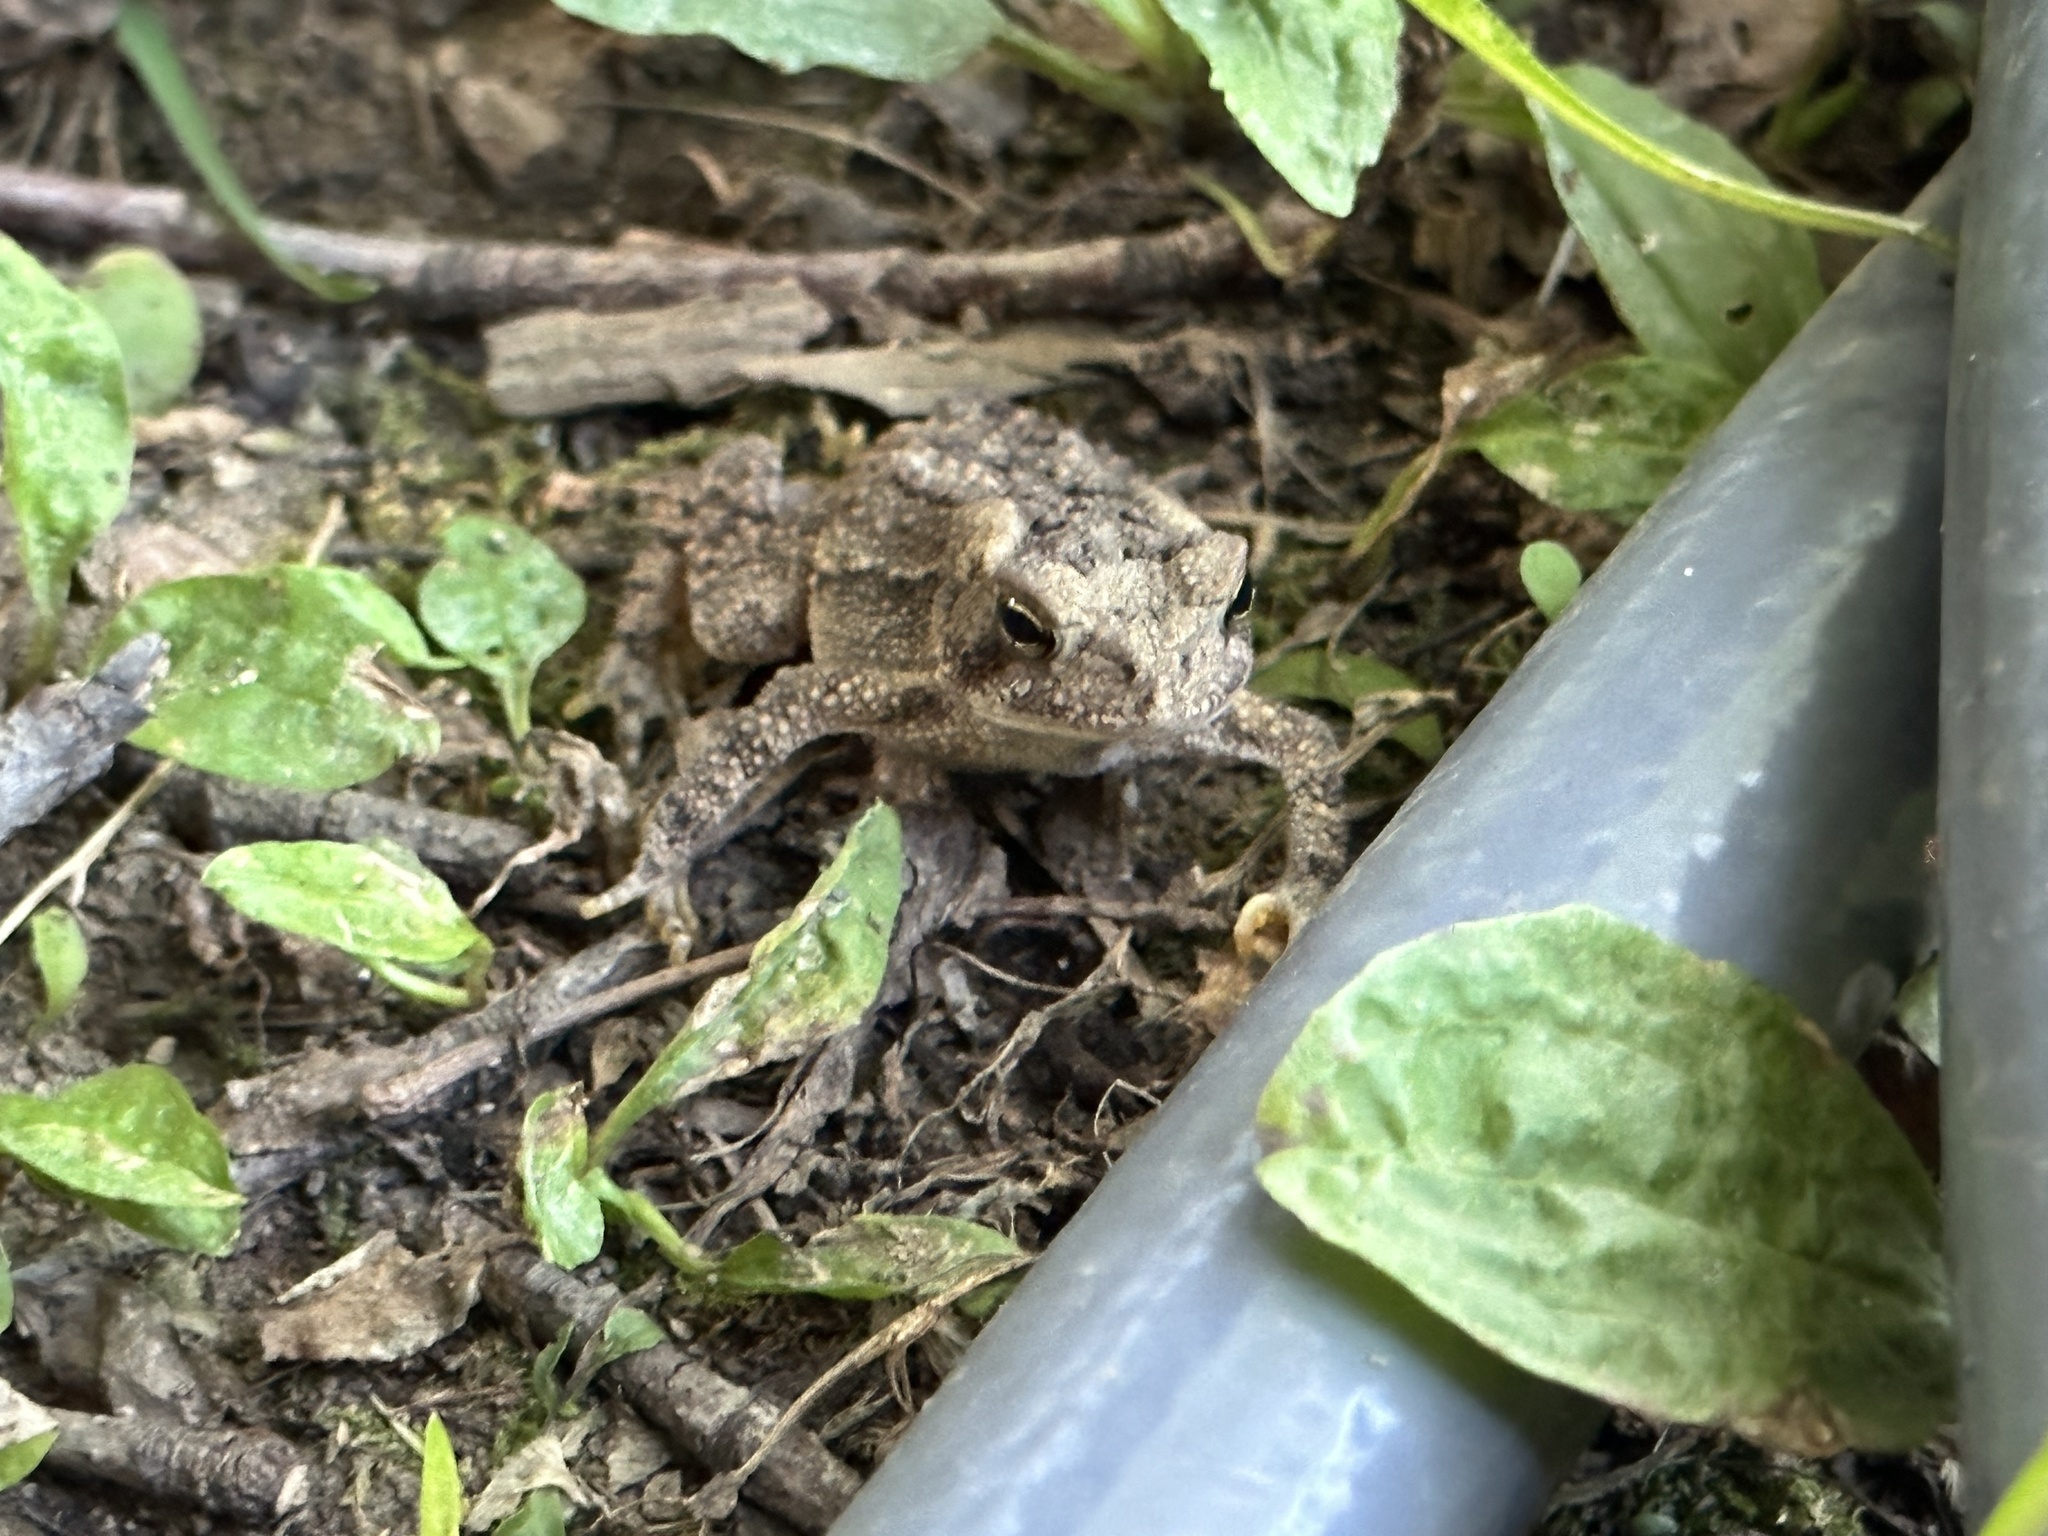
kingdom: Animalia
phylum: Chordata
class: Amphibia
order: Anura
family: Bufonidae
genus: Anaxyrus
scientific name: Anaxyrus americanus
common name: American toad
